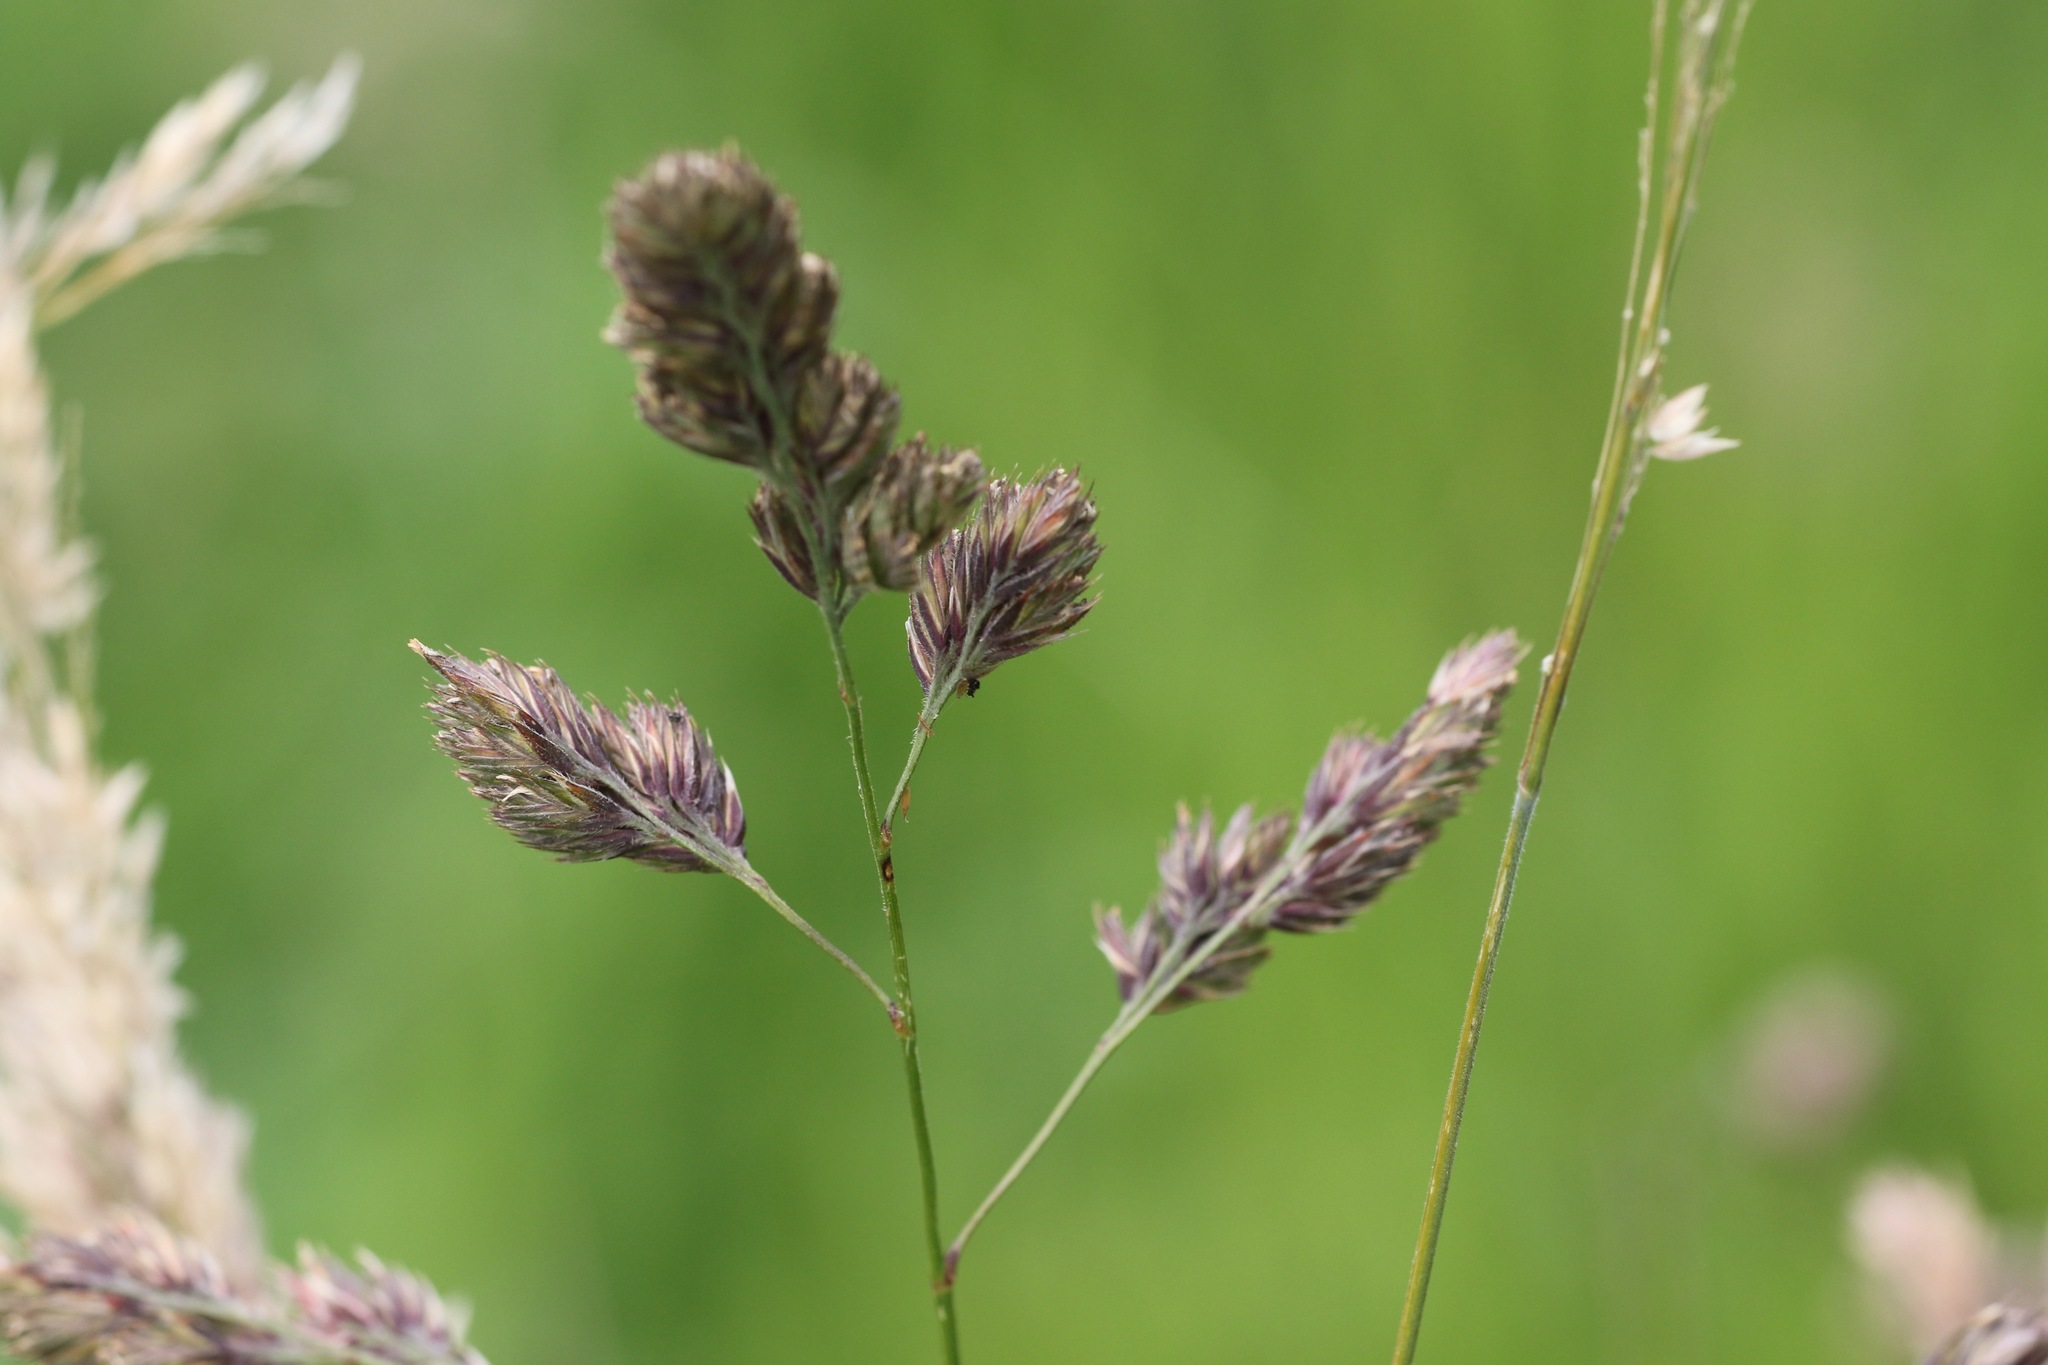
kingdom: Plantae
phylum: Tracheophyta
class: Liliopsida
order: Poales
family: Poaceae
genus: Dactylis
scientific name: Dactylis glomerata
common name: Orchardgrass
